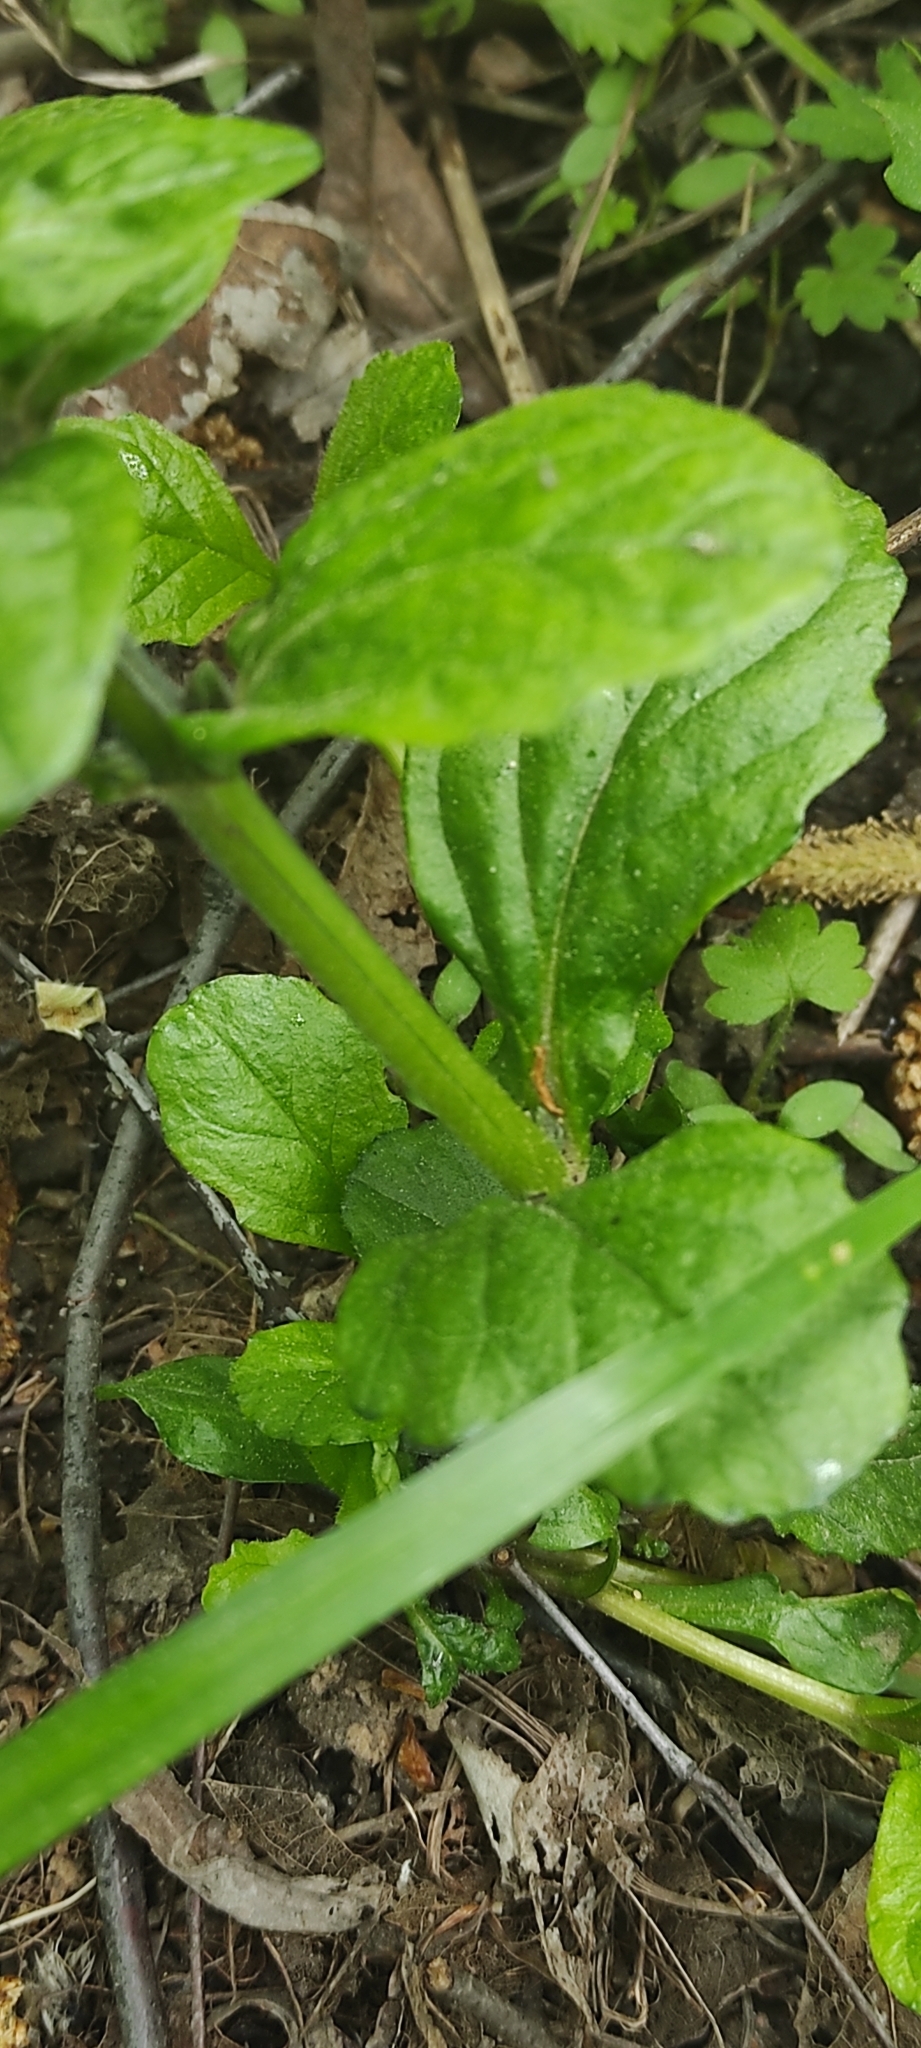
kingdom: Plantae
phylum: Tracheophyta
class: Magnoliopsida
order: Lamiales
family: Lamiaceae
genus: Ajuga
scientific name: Ajuga reptans
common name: Bugle
